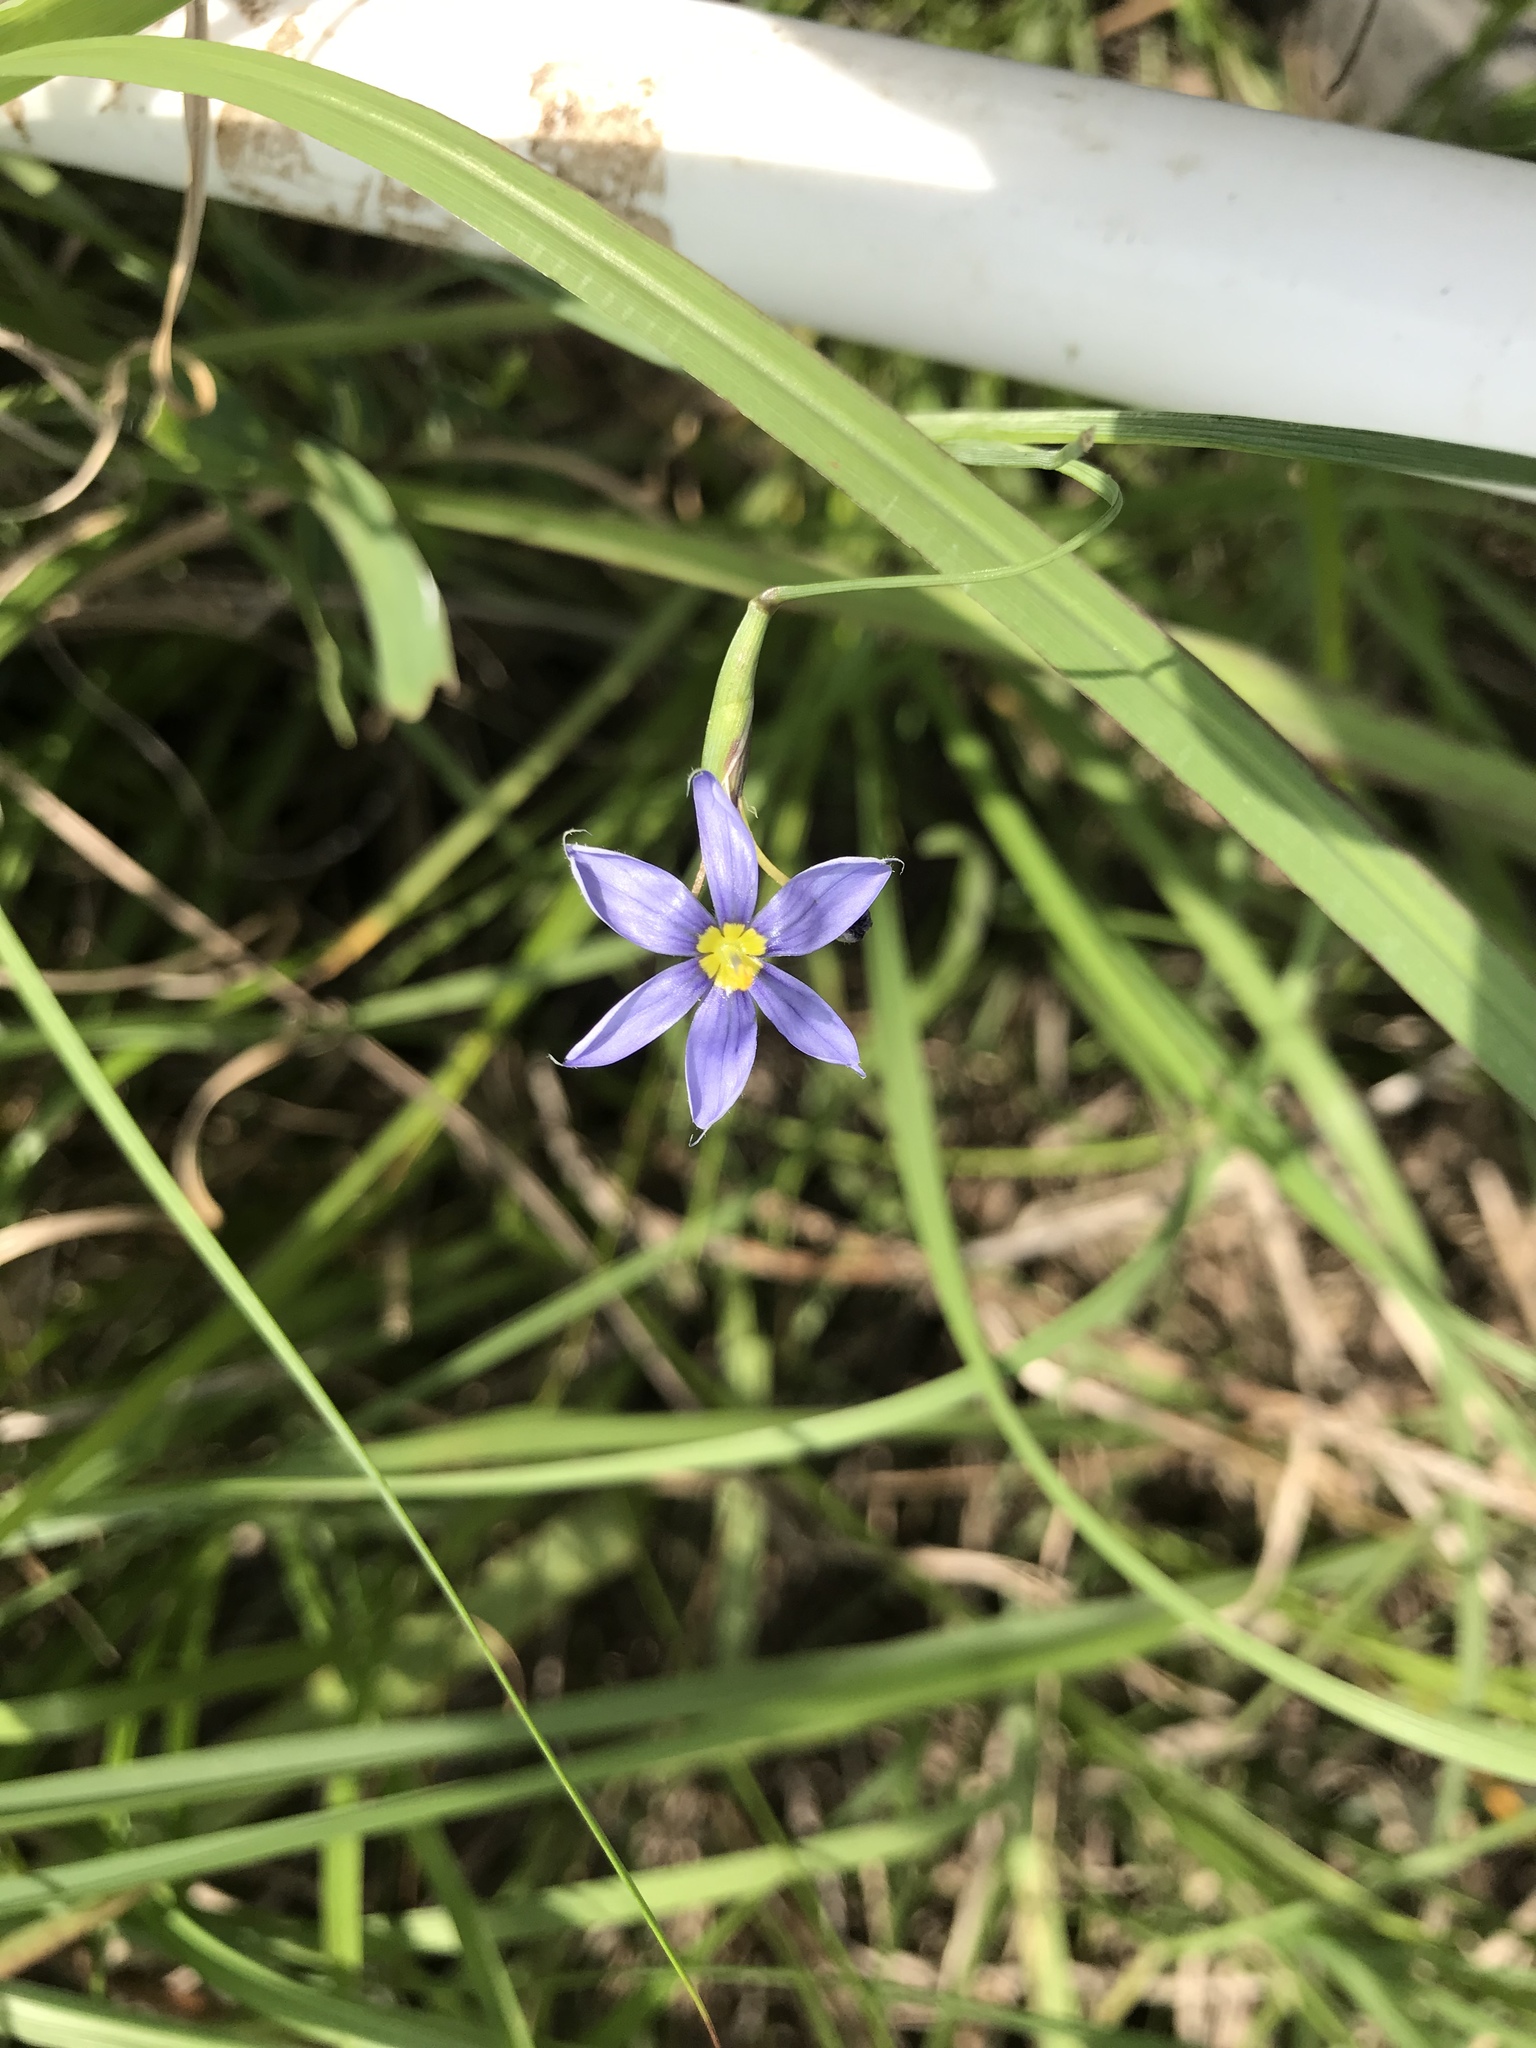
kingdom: Plantae
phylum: Tracheophyta
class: Liliopsida
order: Asparagales
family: Iridaceae
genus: Sisyrinchium
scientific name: Sisyrinchium angustifolium
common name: Narrow-leaf blue-eyed-grass
